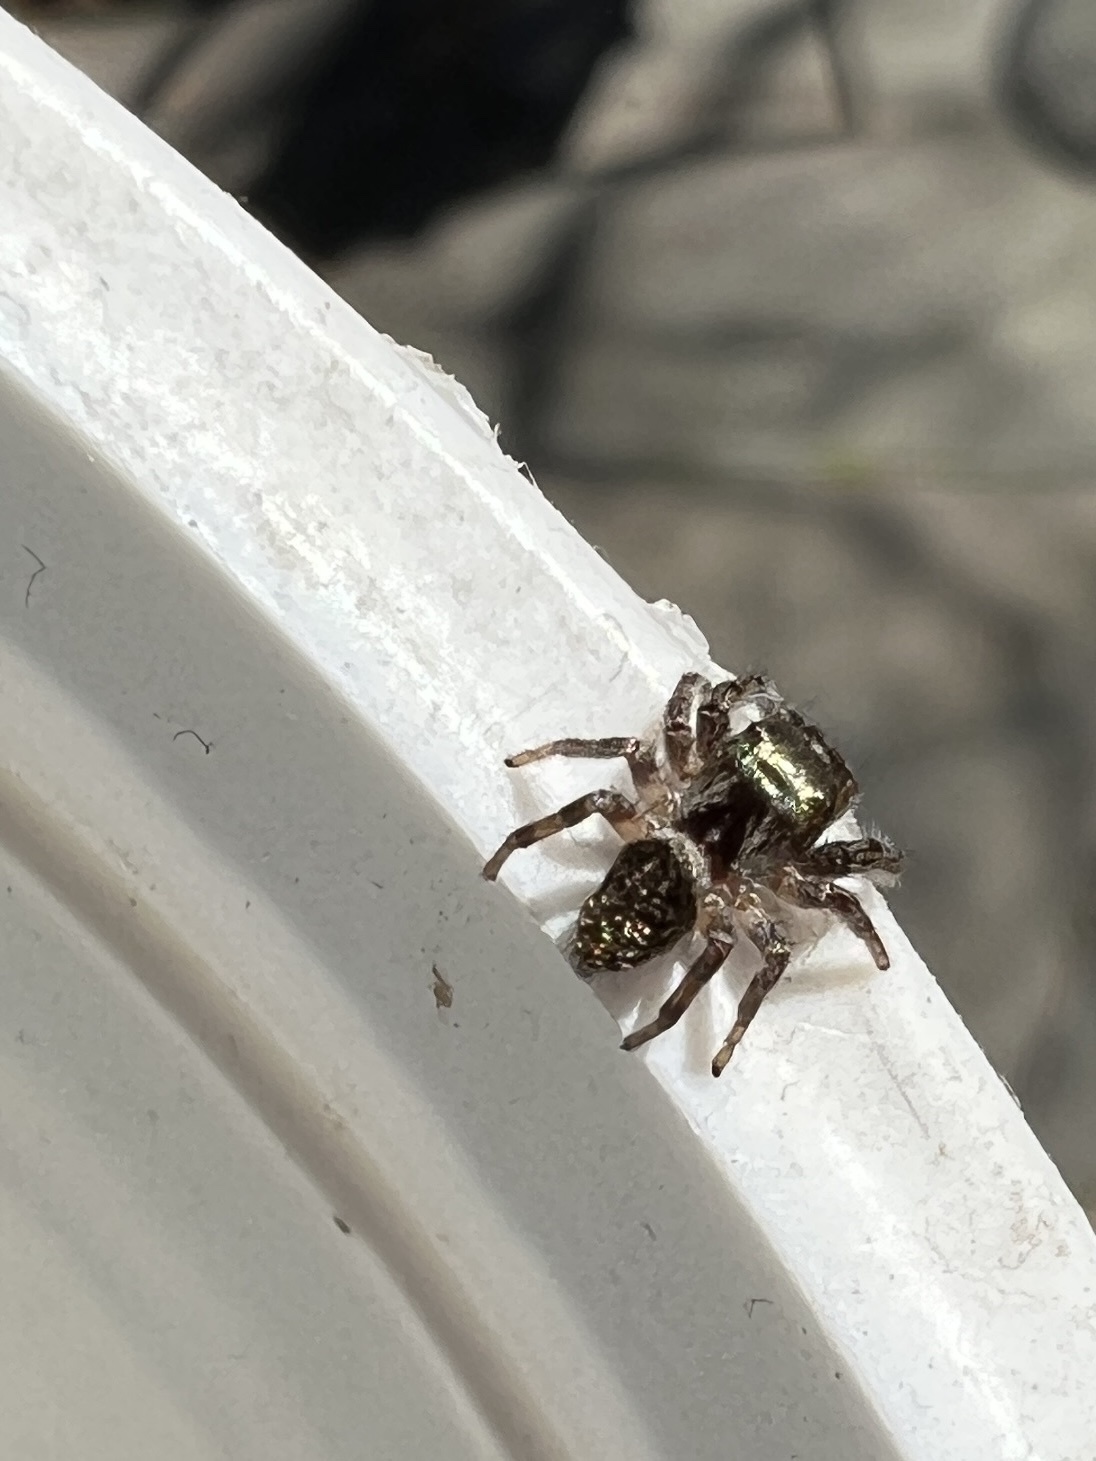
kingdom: Animalia
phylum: Arthropoda
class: Arachnida
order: Araneae
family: Salticidae
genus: Eris
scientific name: Eris militaris
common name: Bronze jumper
